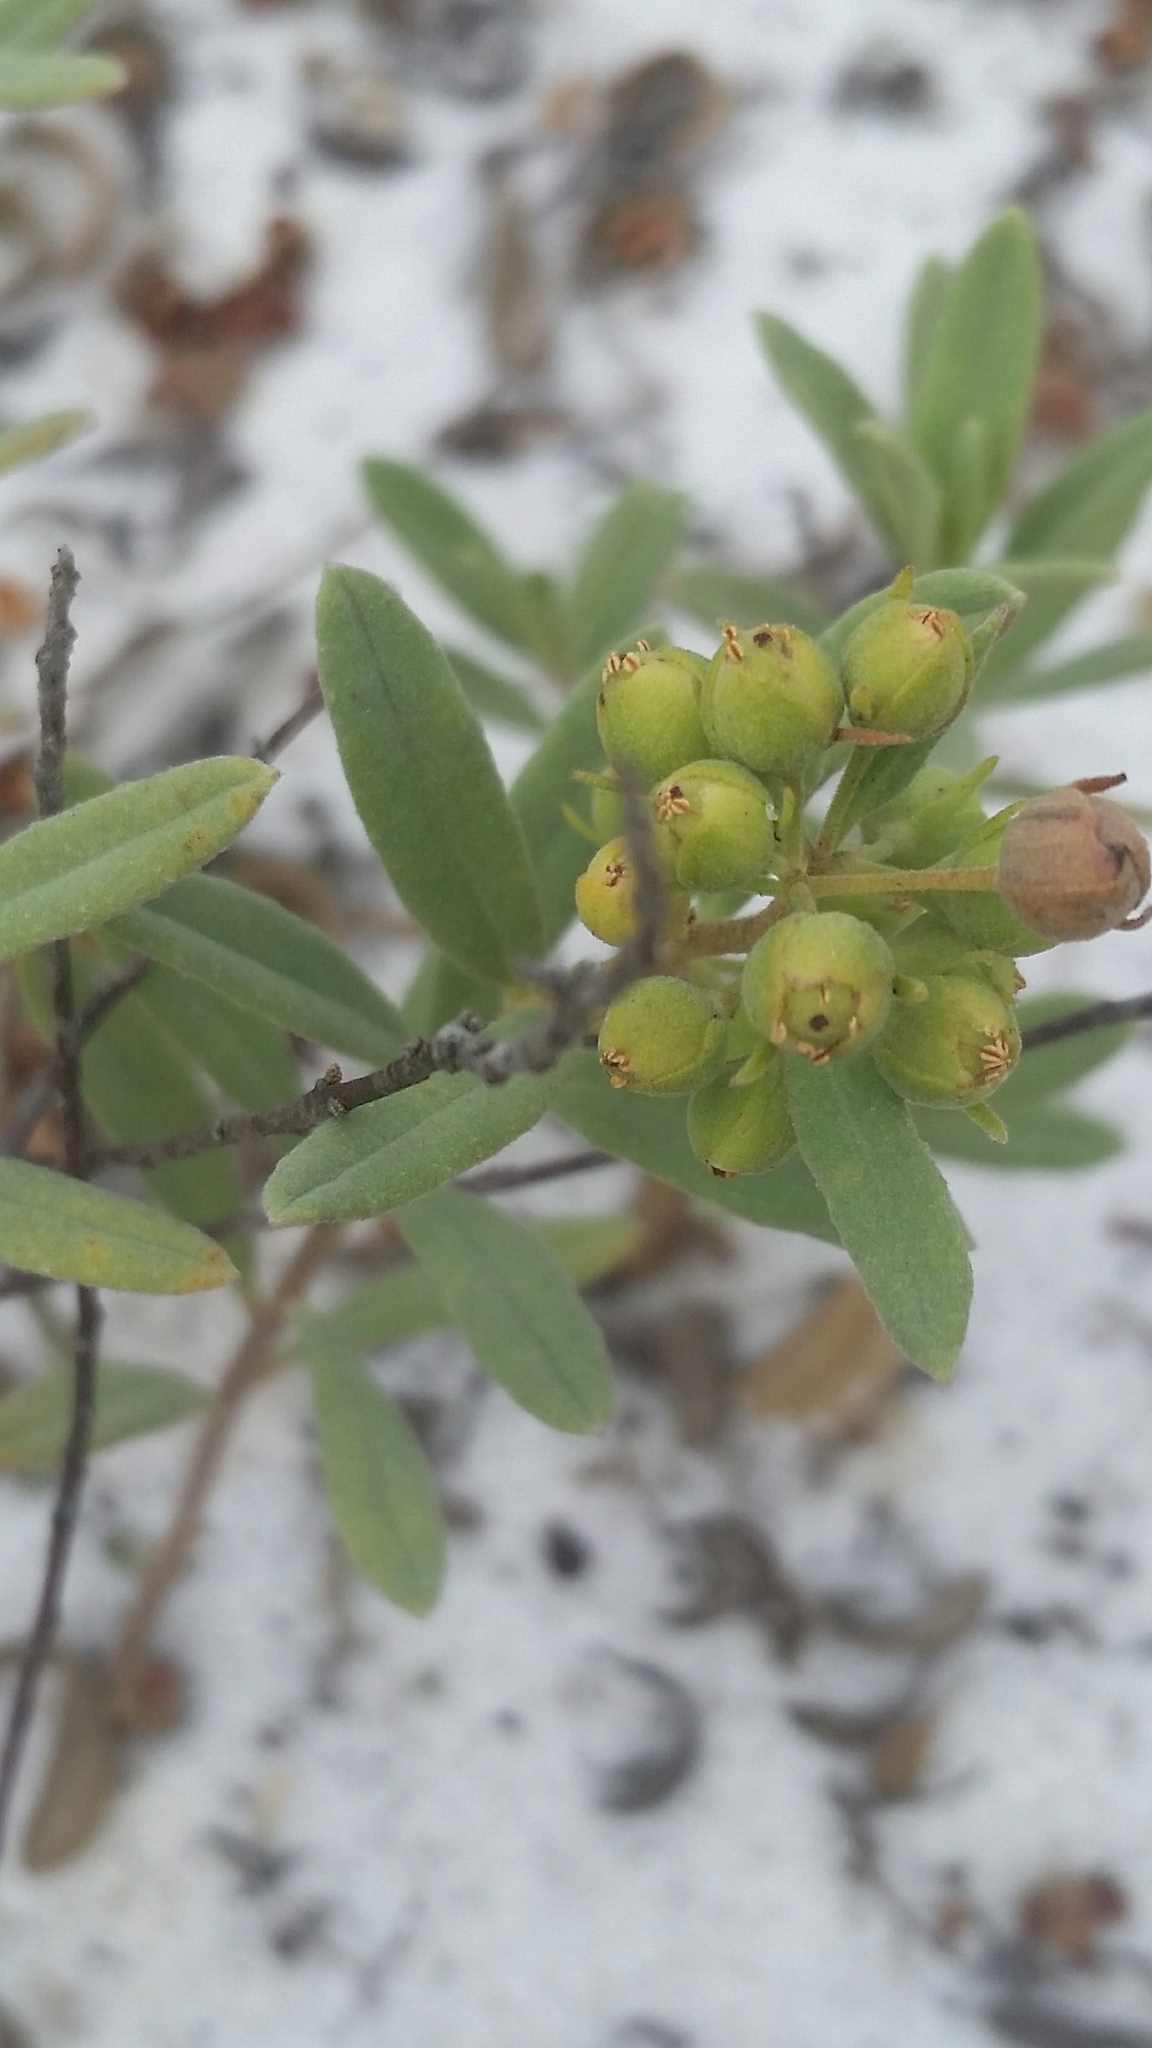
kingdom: Plantae
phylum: Tracheophyta
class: Magnoliopsida
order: Malvales
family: Cistaceae
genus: Crocanthemum
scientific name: Crocanthemum nashii
